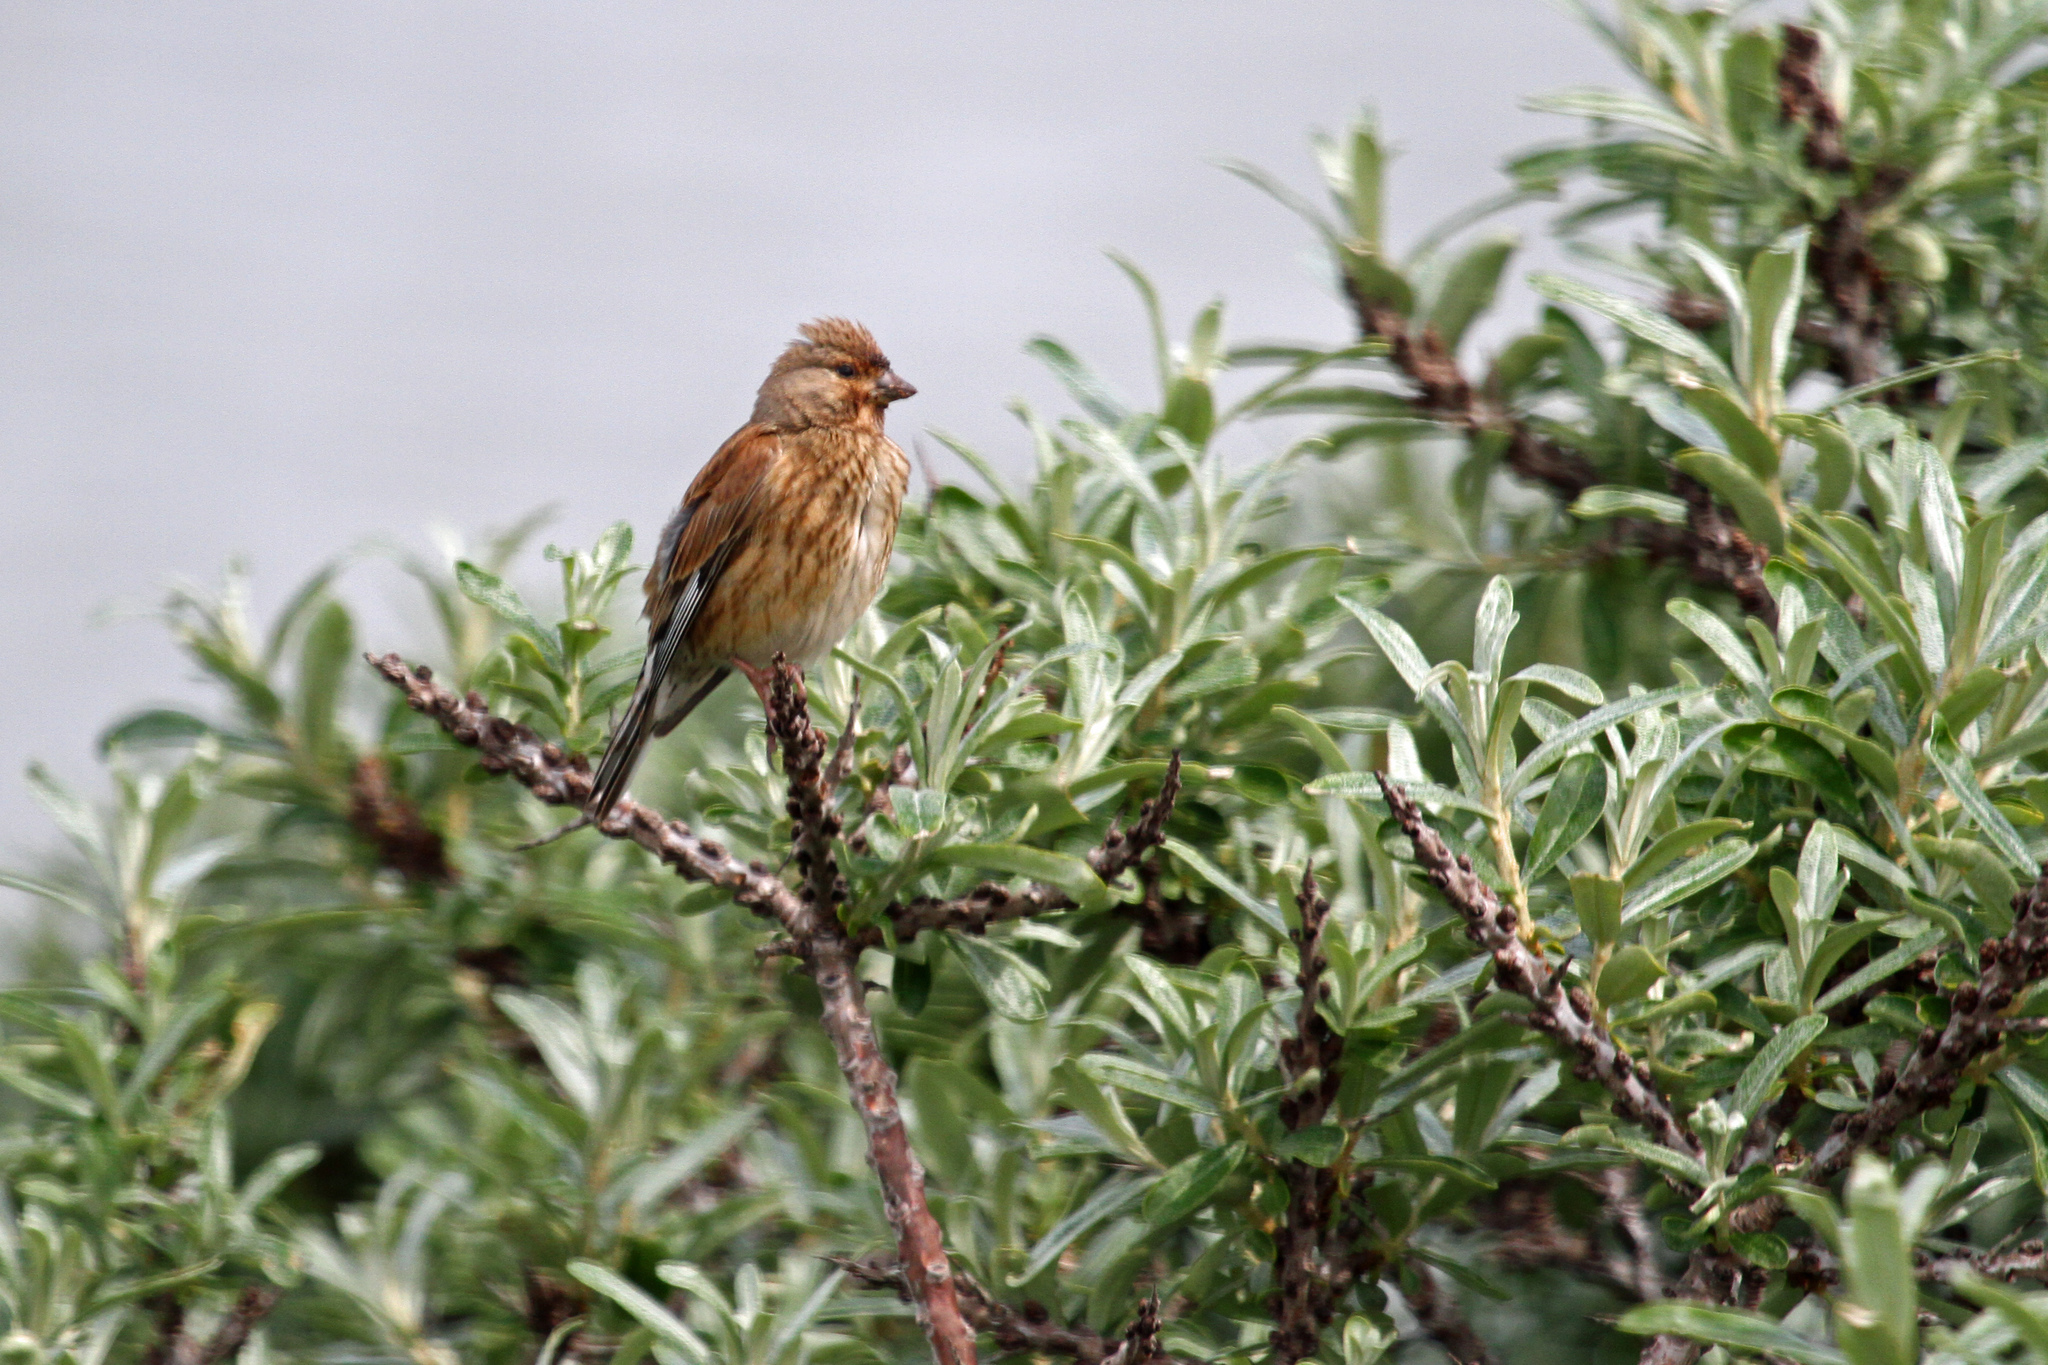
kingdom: Animalia
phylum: Chordata
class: Aves
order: Passeriformes
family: Fringillidae
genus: Linaria
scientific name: Linaria cannabina
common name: Common linnet
